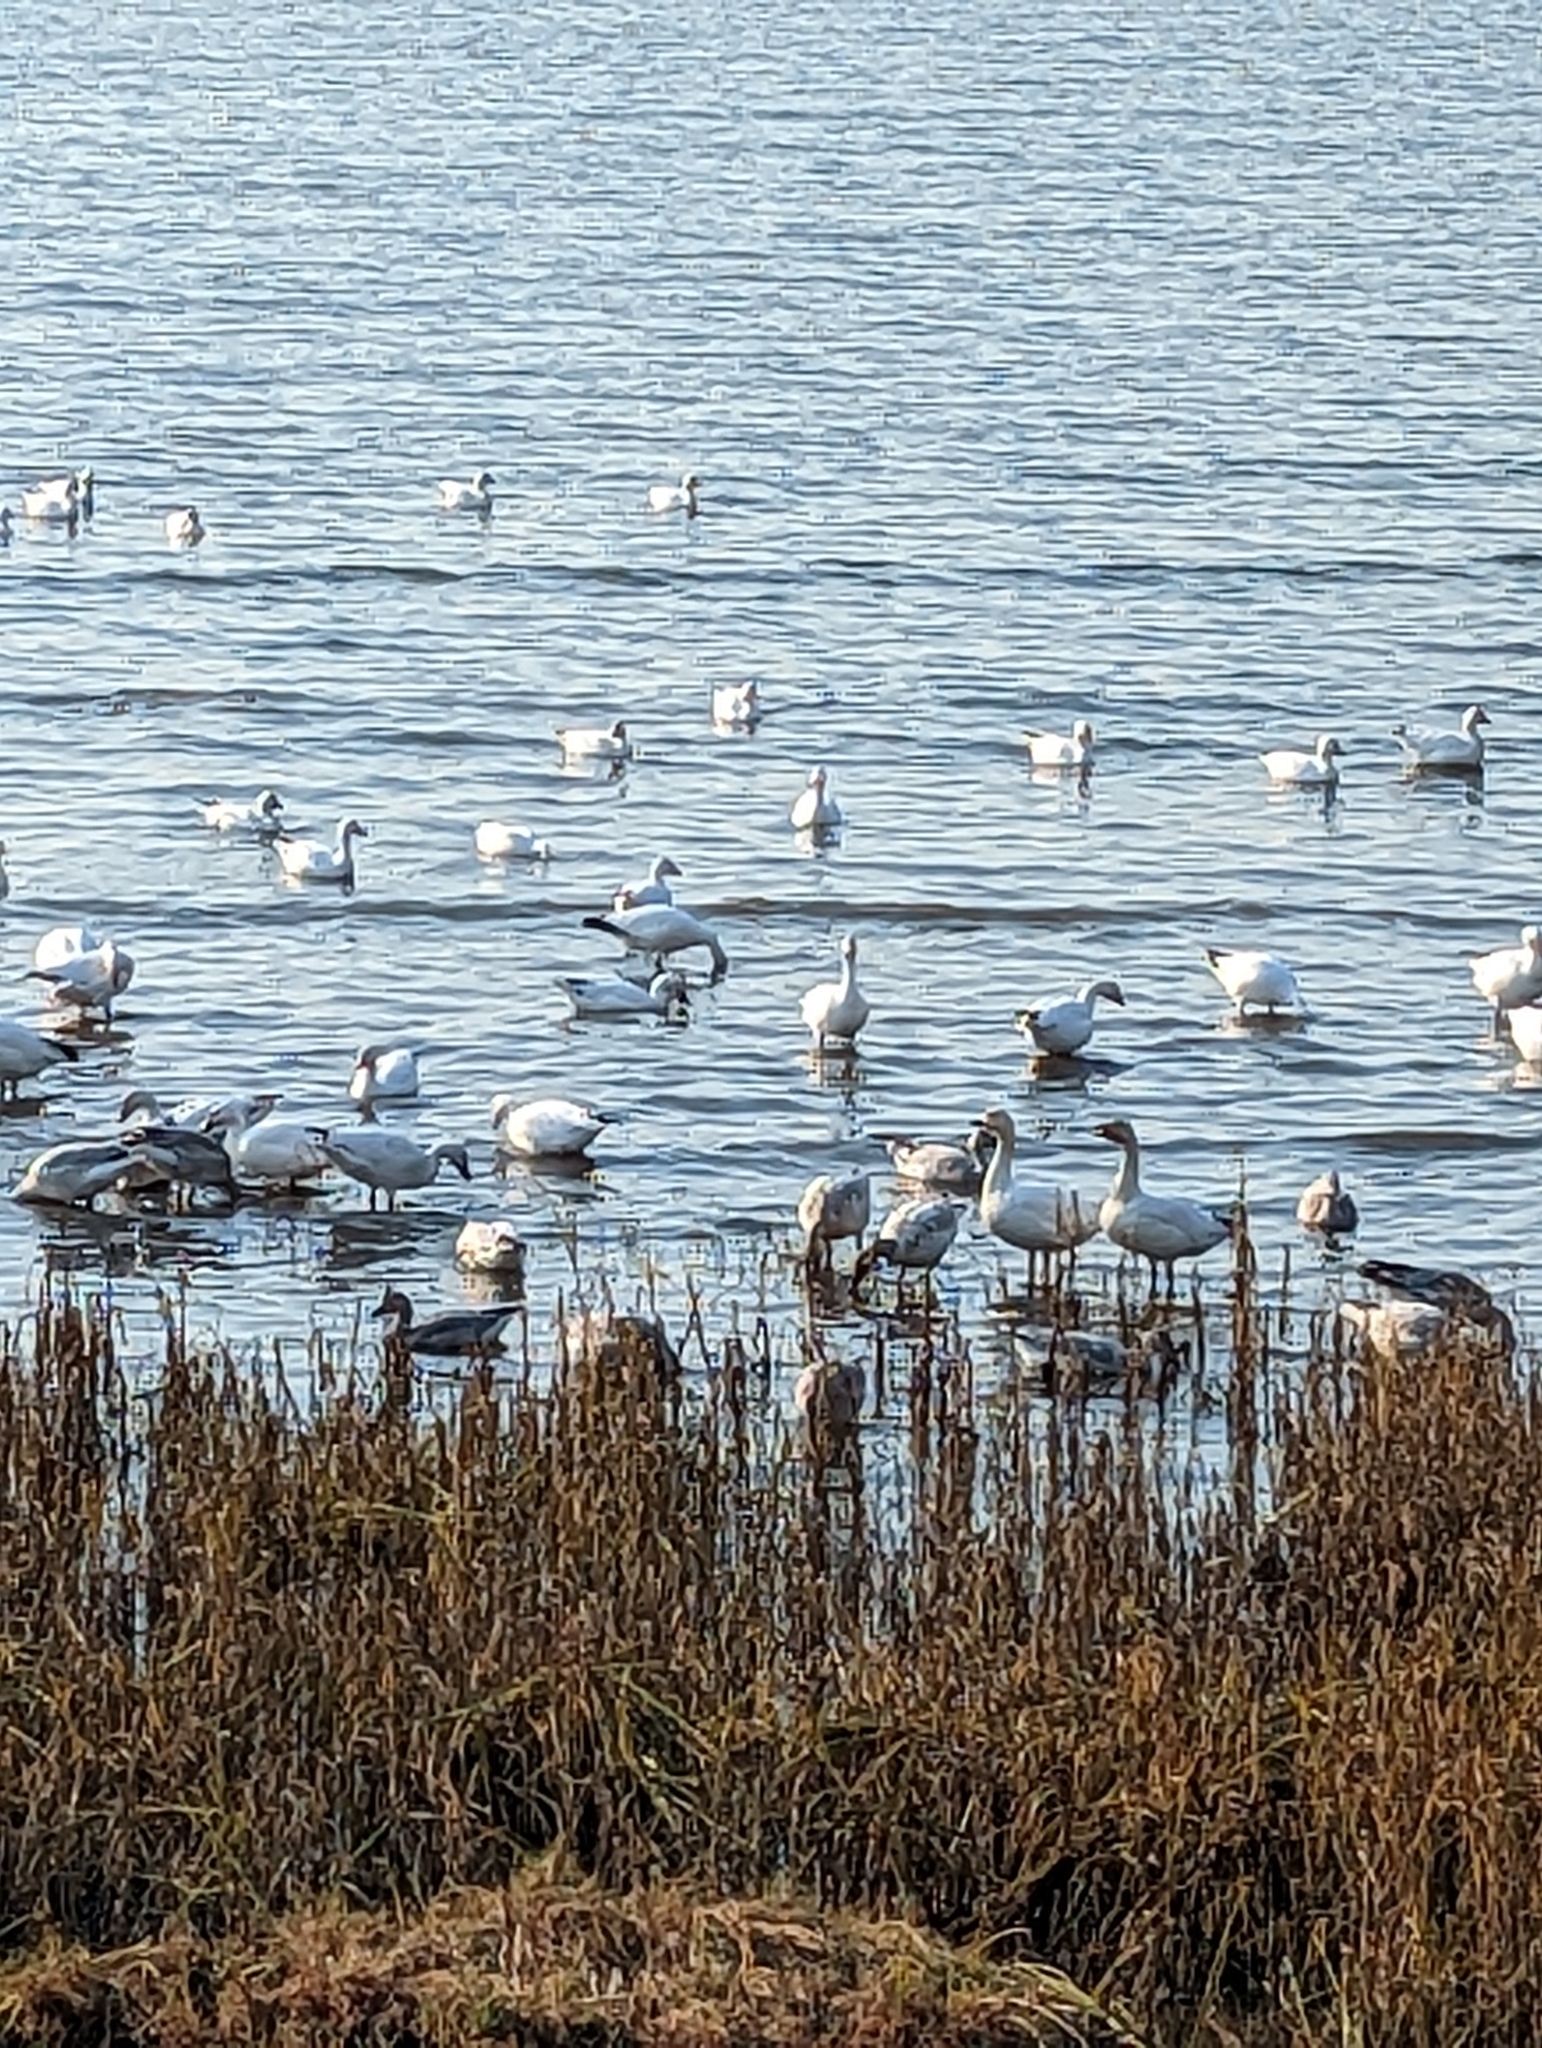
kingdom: Animalia
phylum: Chordata
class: Aves
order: Anseriformes
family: Anatidae
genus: Anser
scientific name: Anser caerulescens
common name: Snow goose
